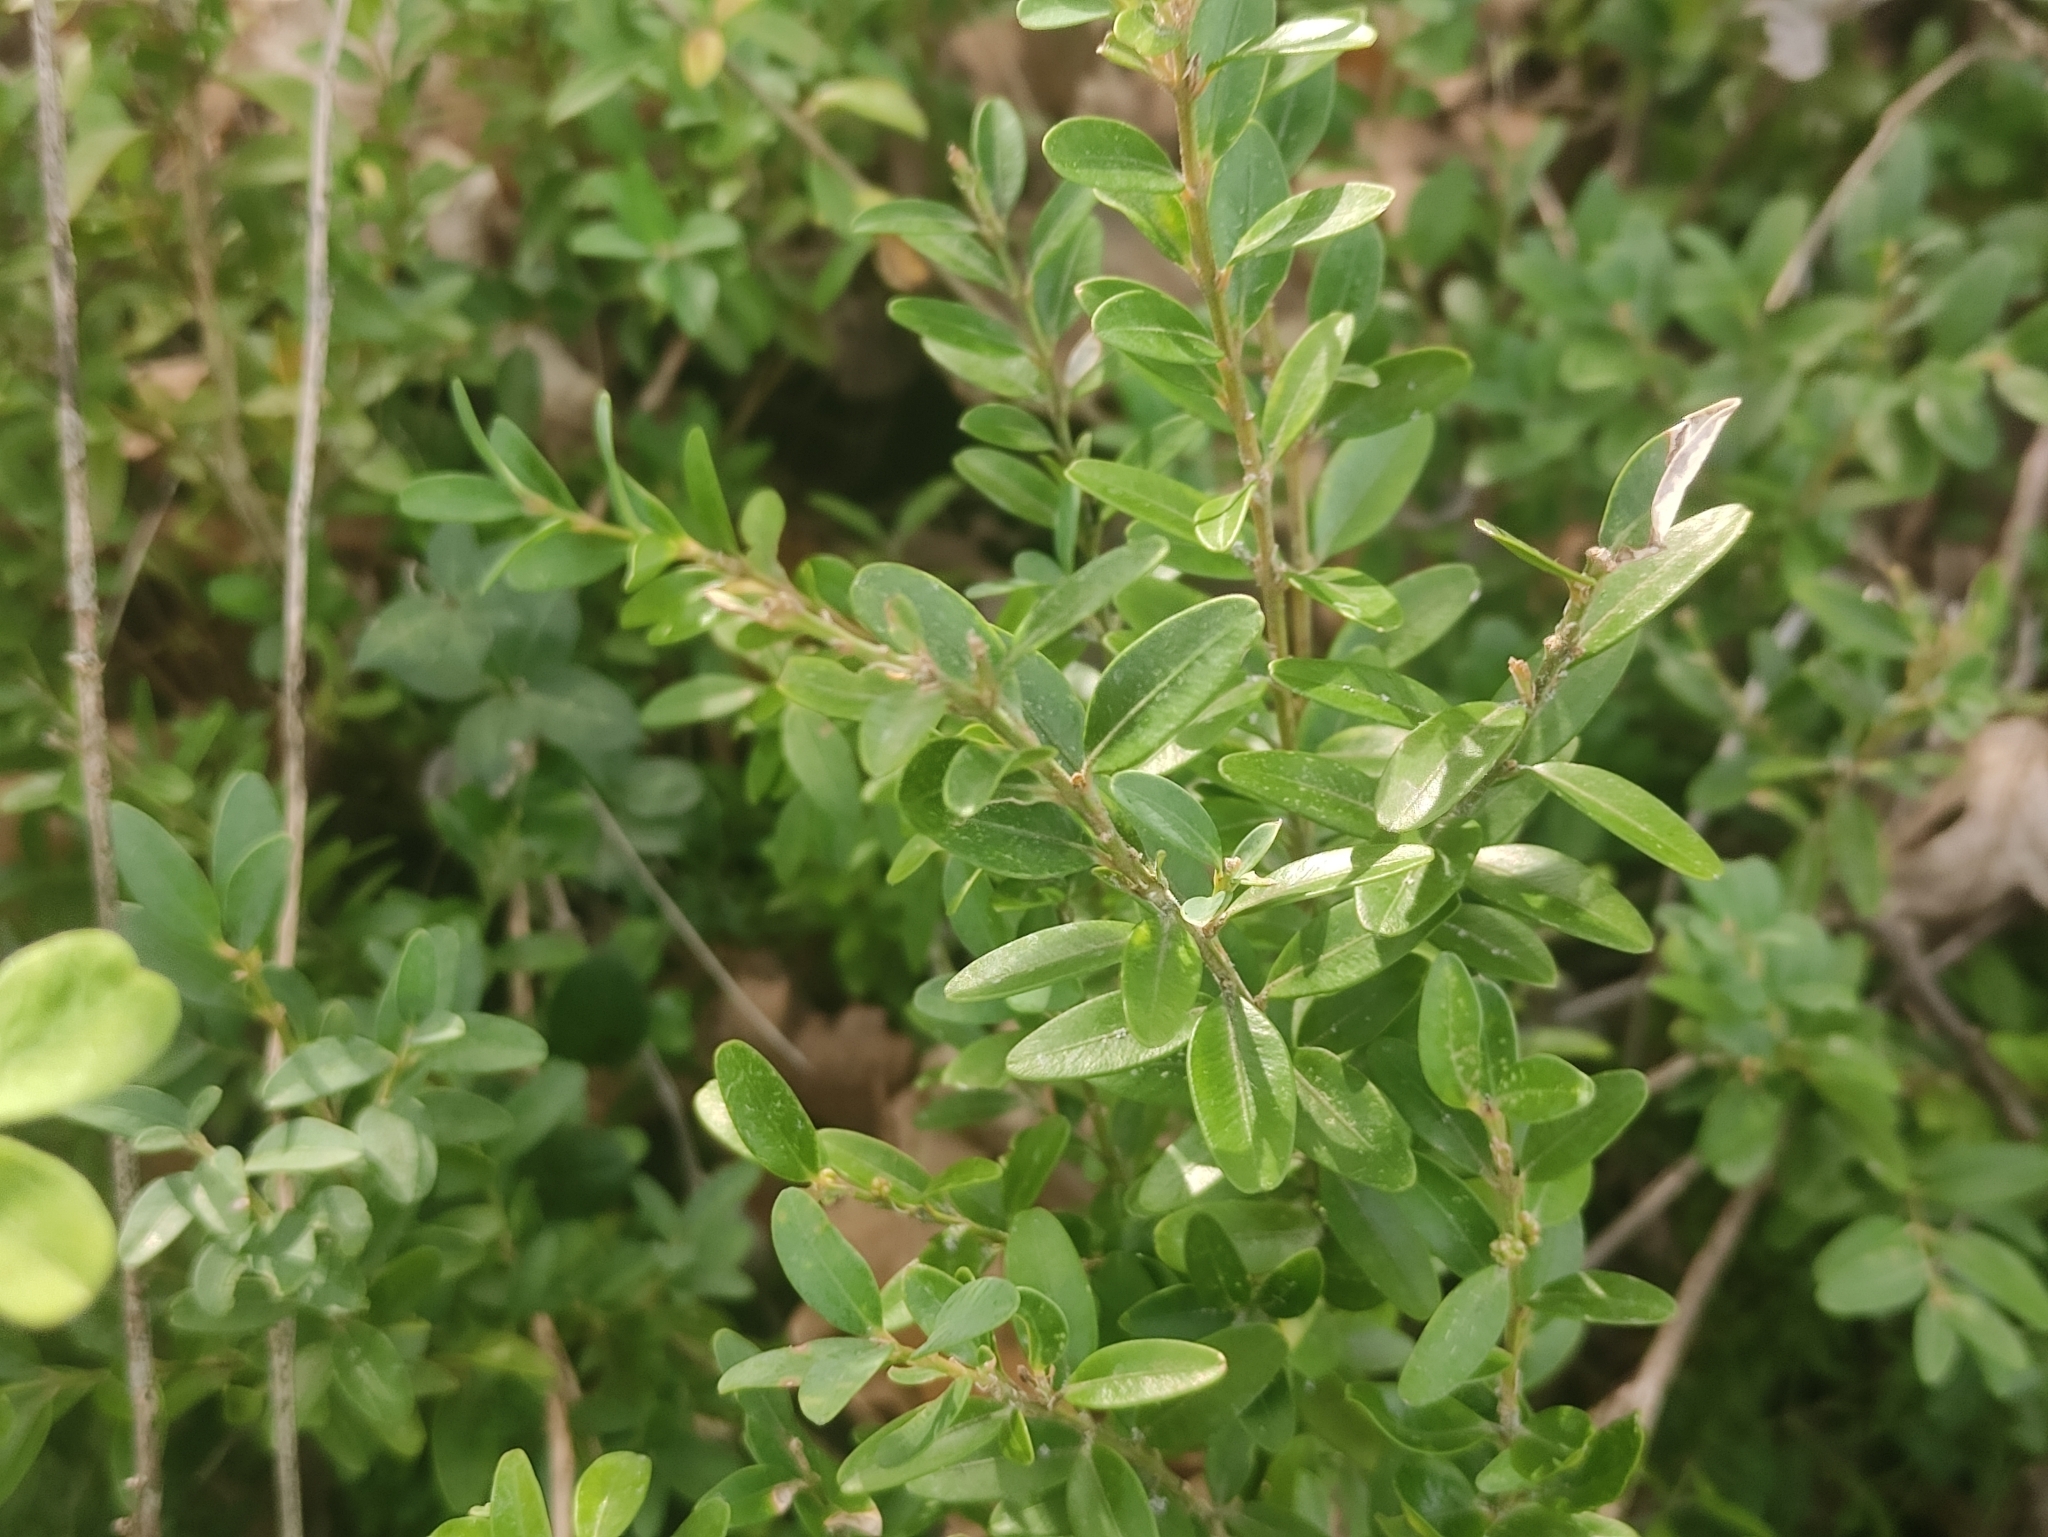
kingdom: Plantae
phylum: Tracheophyta
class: Magnoliopsida
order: Buxales
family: Buxaceae
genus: Buxus
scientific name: Buxus sempervirens
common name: Box
